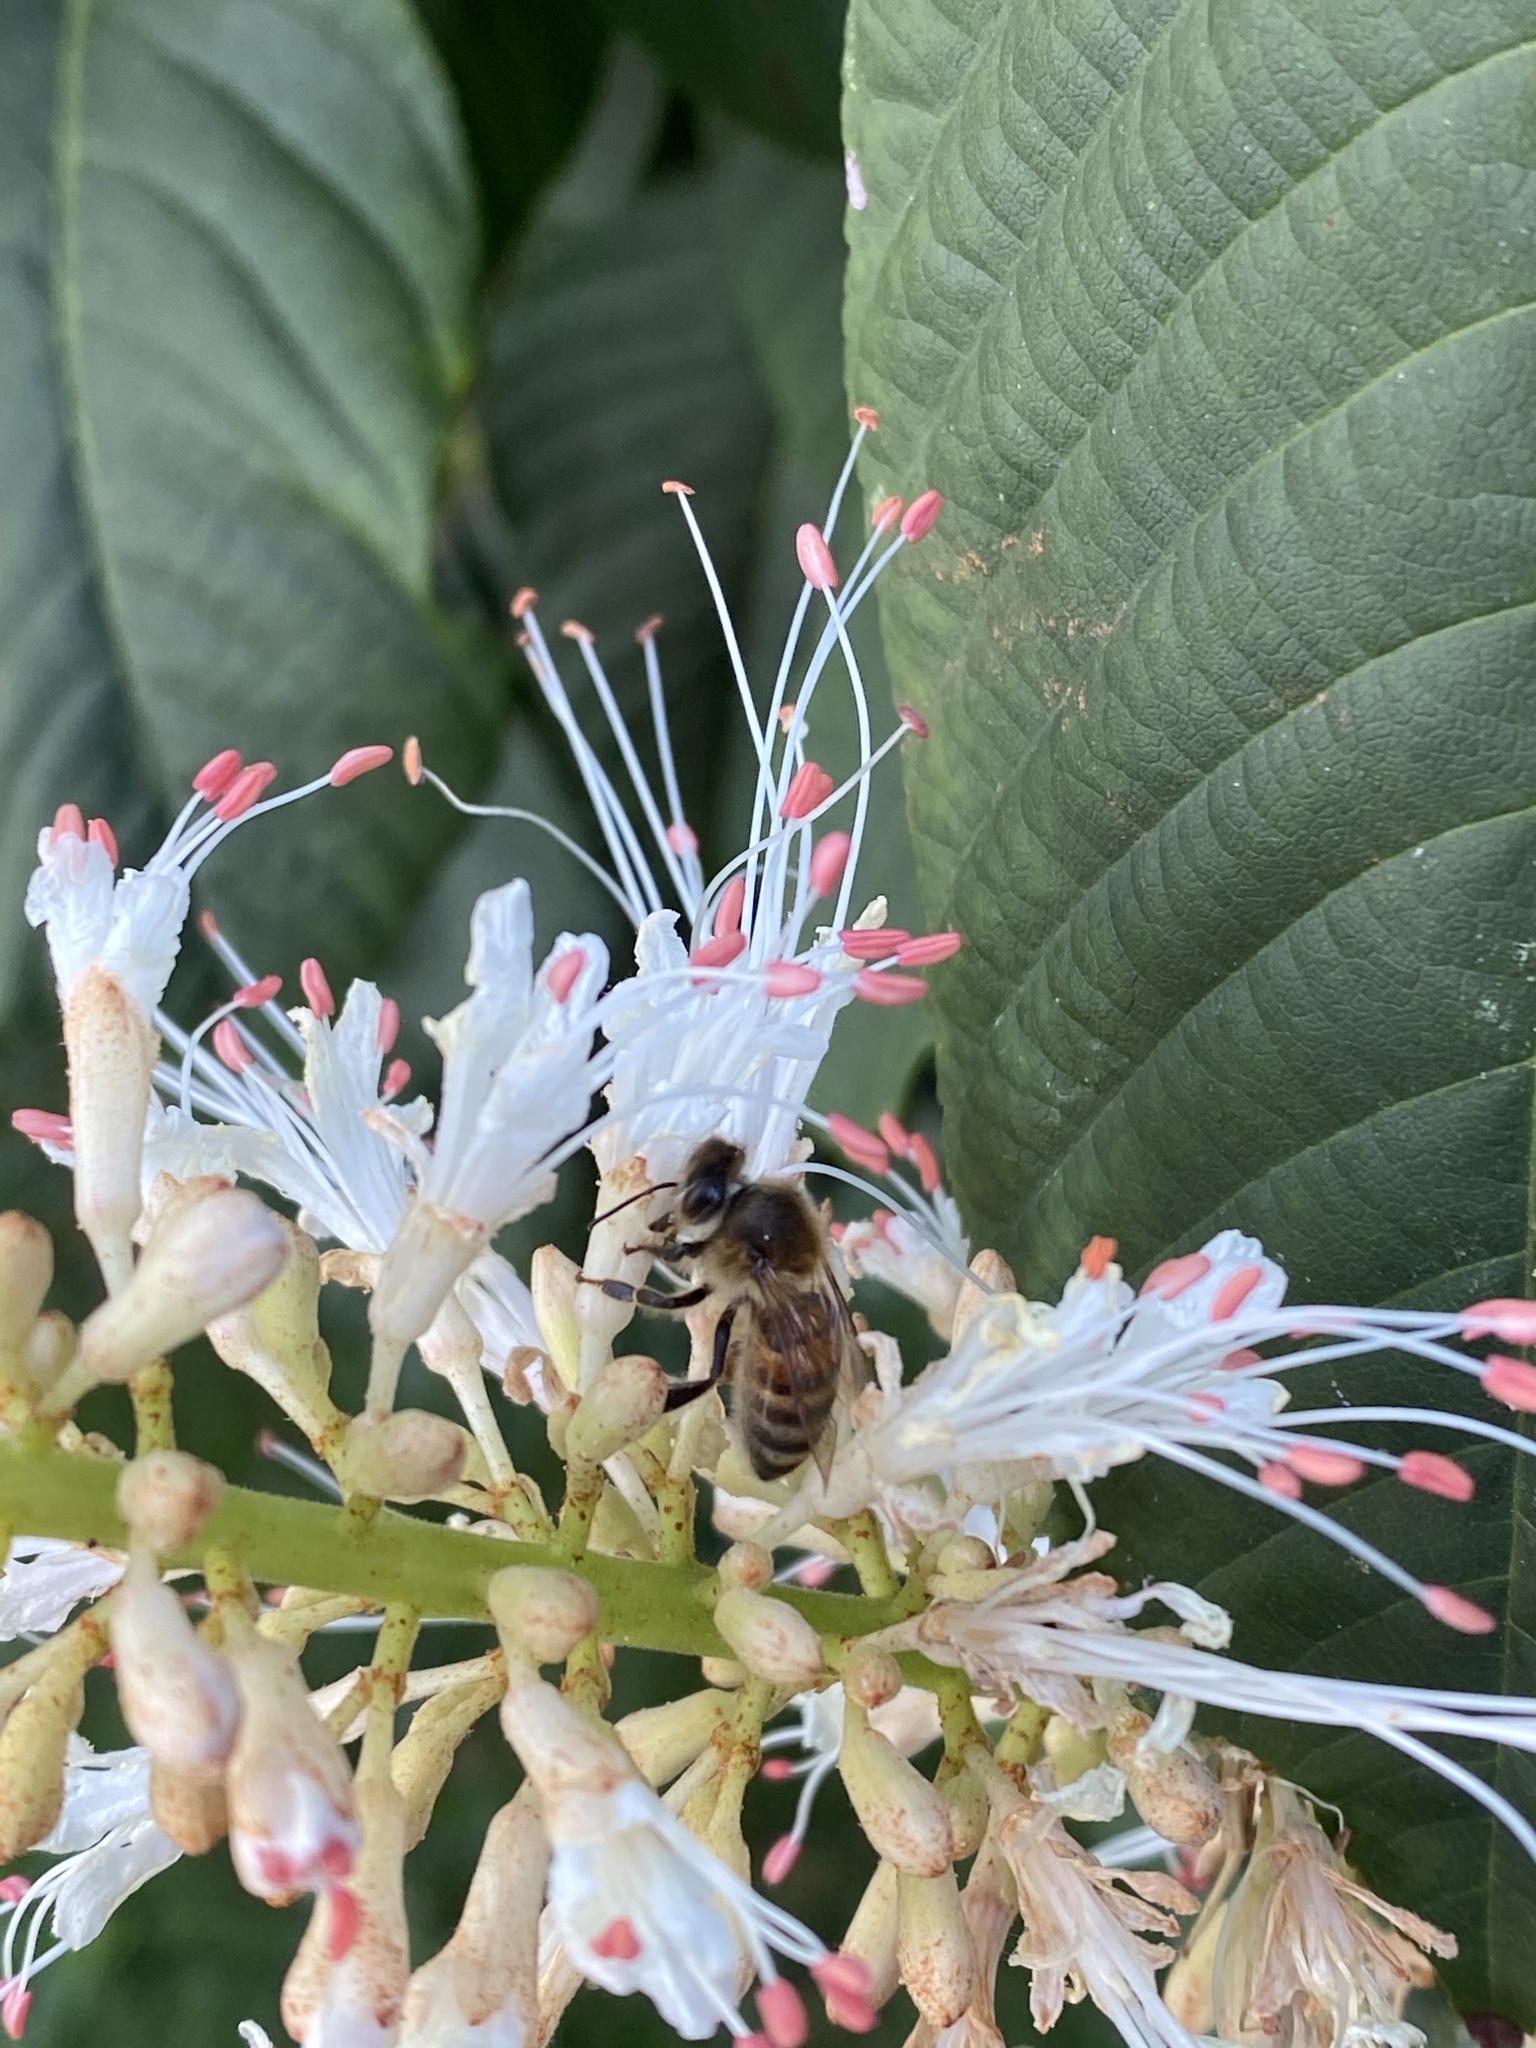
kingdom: Animalia
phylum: Arthropoda
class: Insecta
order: Hymenoptera
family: Apidae
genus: Apis
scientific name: Apis mellifera
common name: Honey bee
